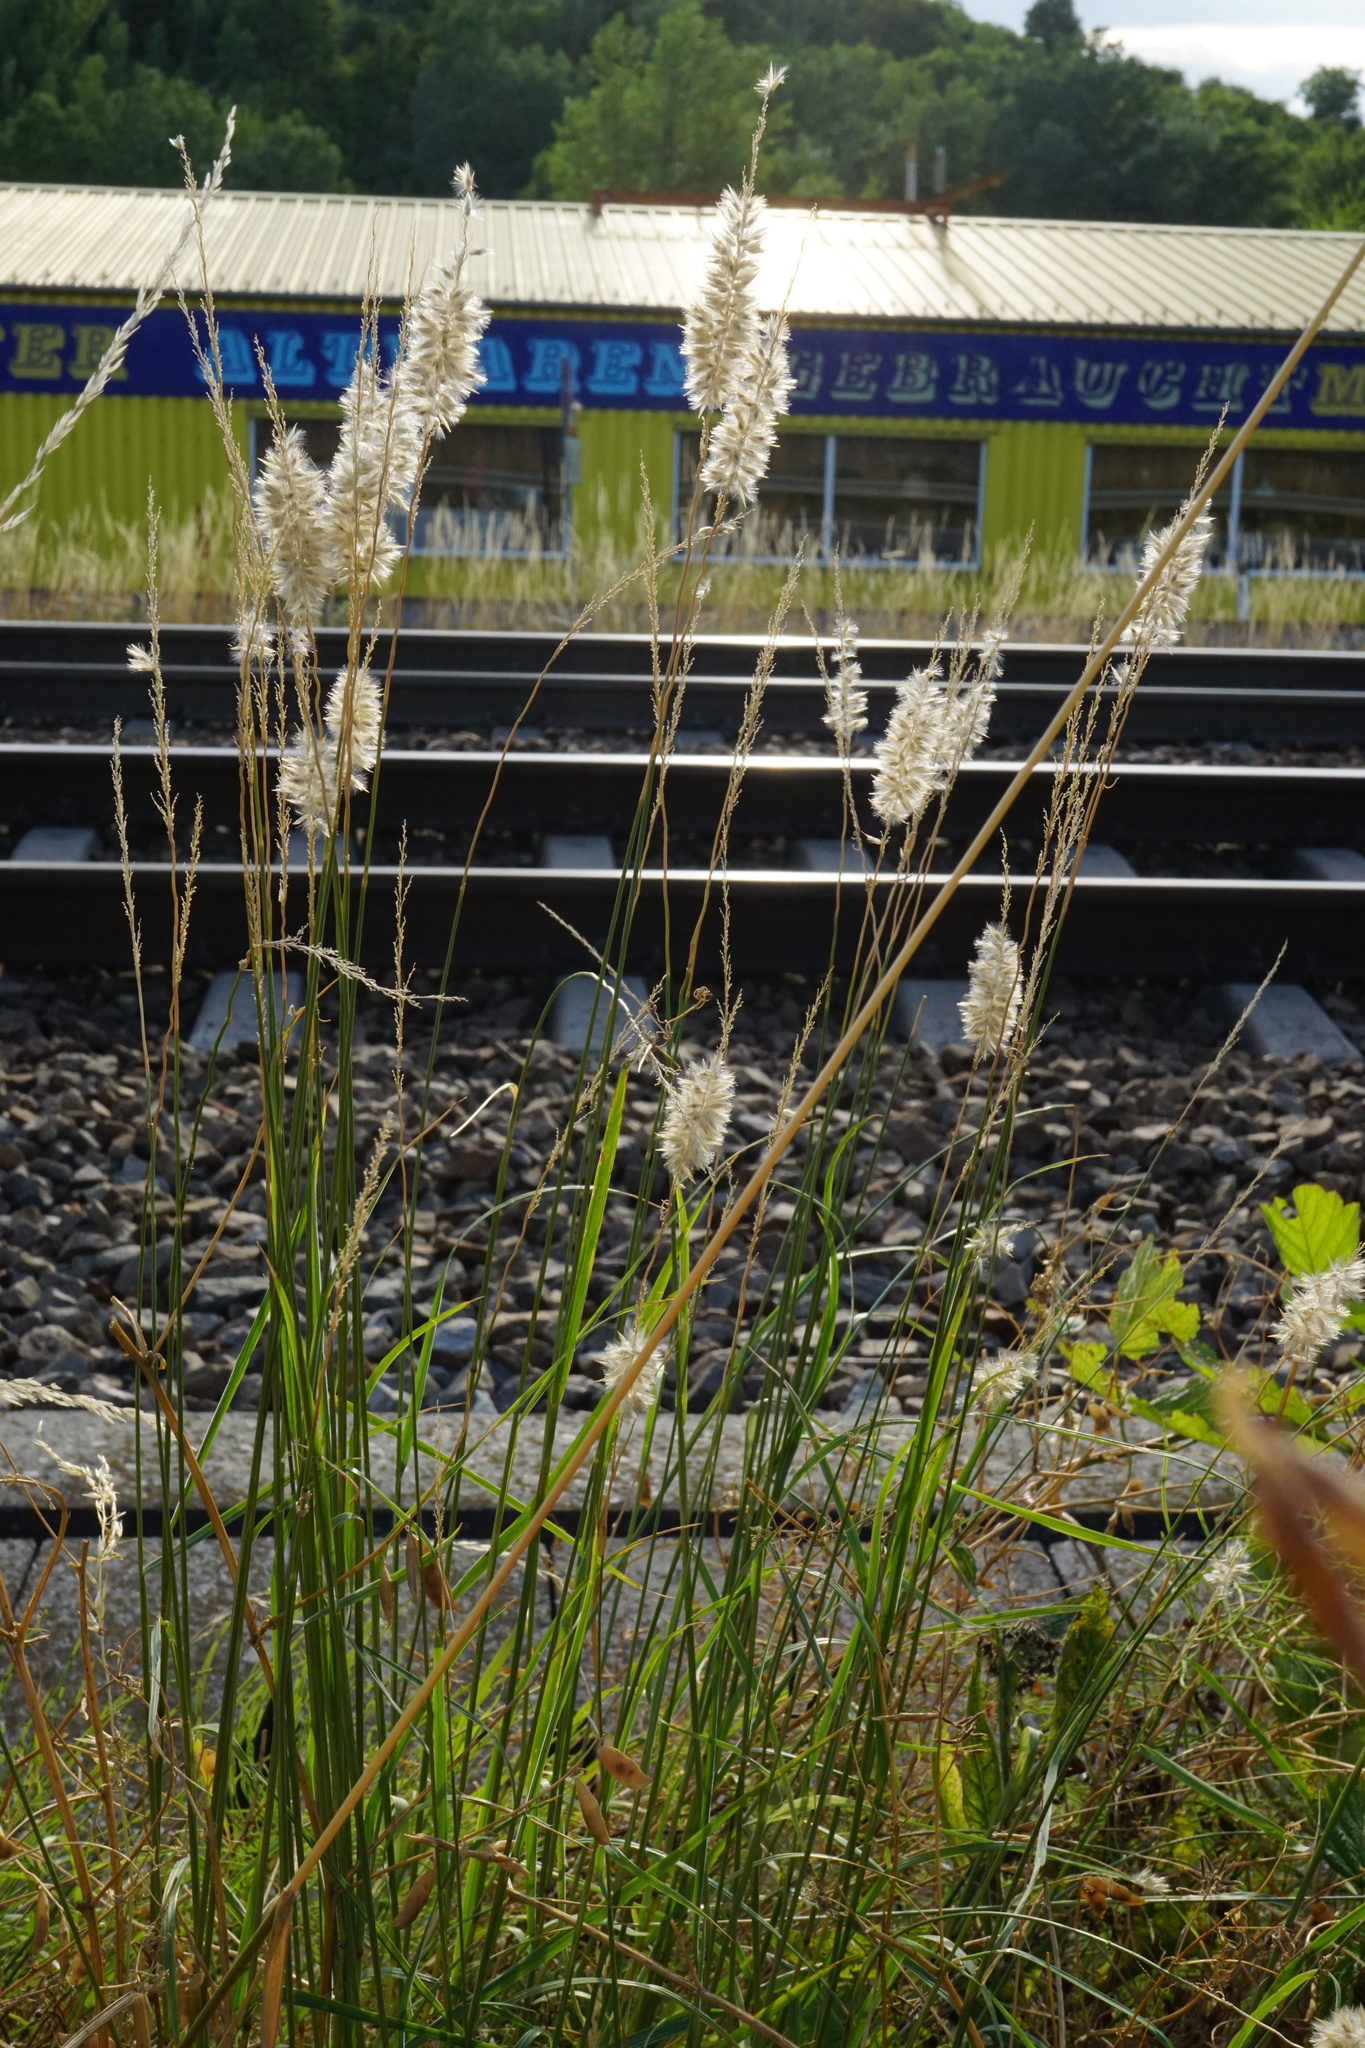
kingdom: Plantae
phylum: Tracheophyta
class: Liliopsida
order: Poales
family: Poaceae
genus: Melica
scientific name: Melica ciliata
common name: Hairy melicgrass
